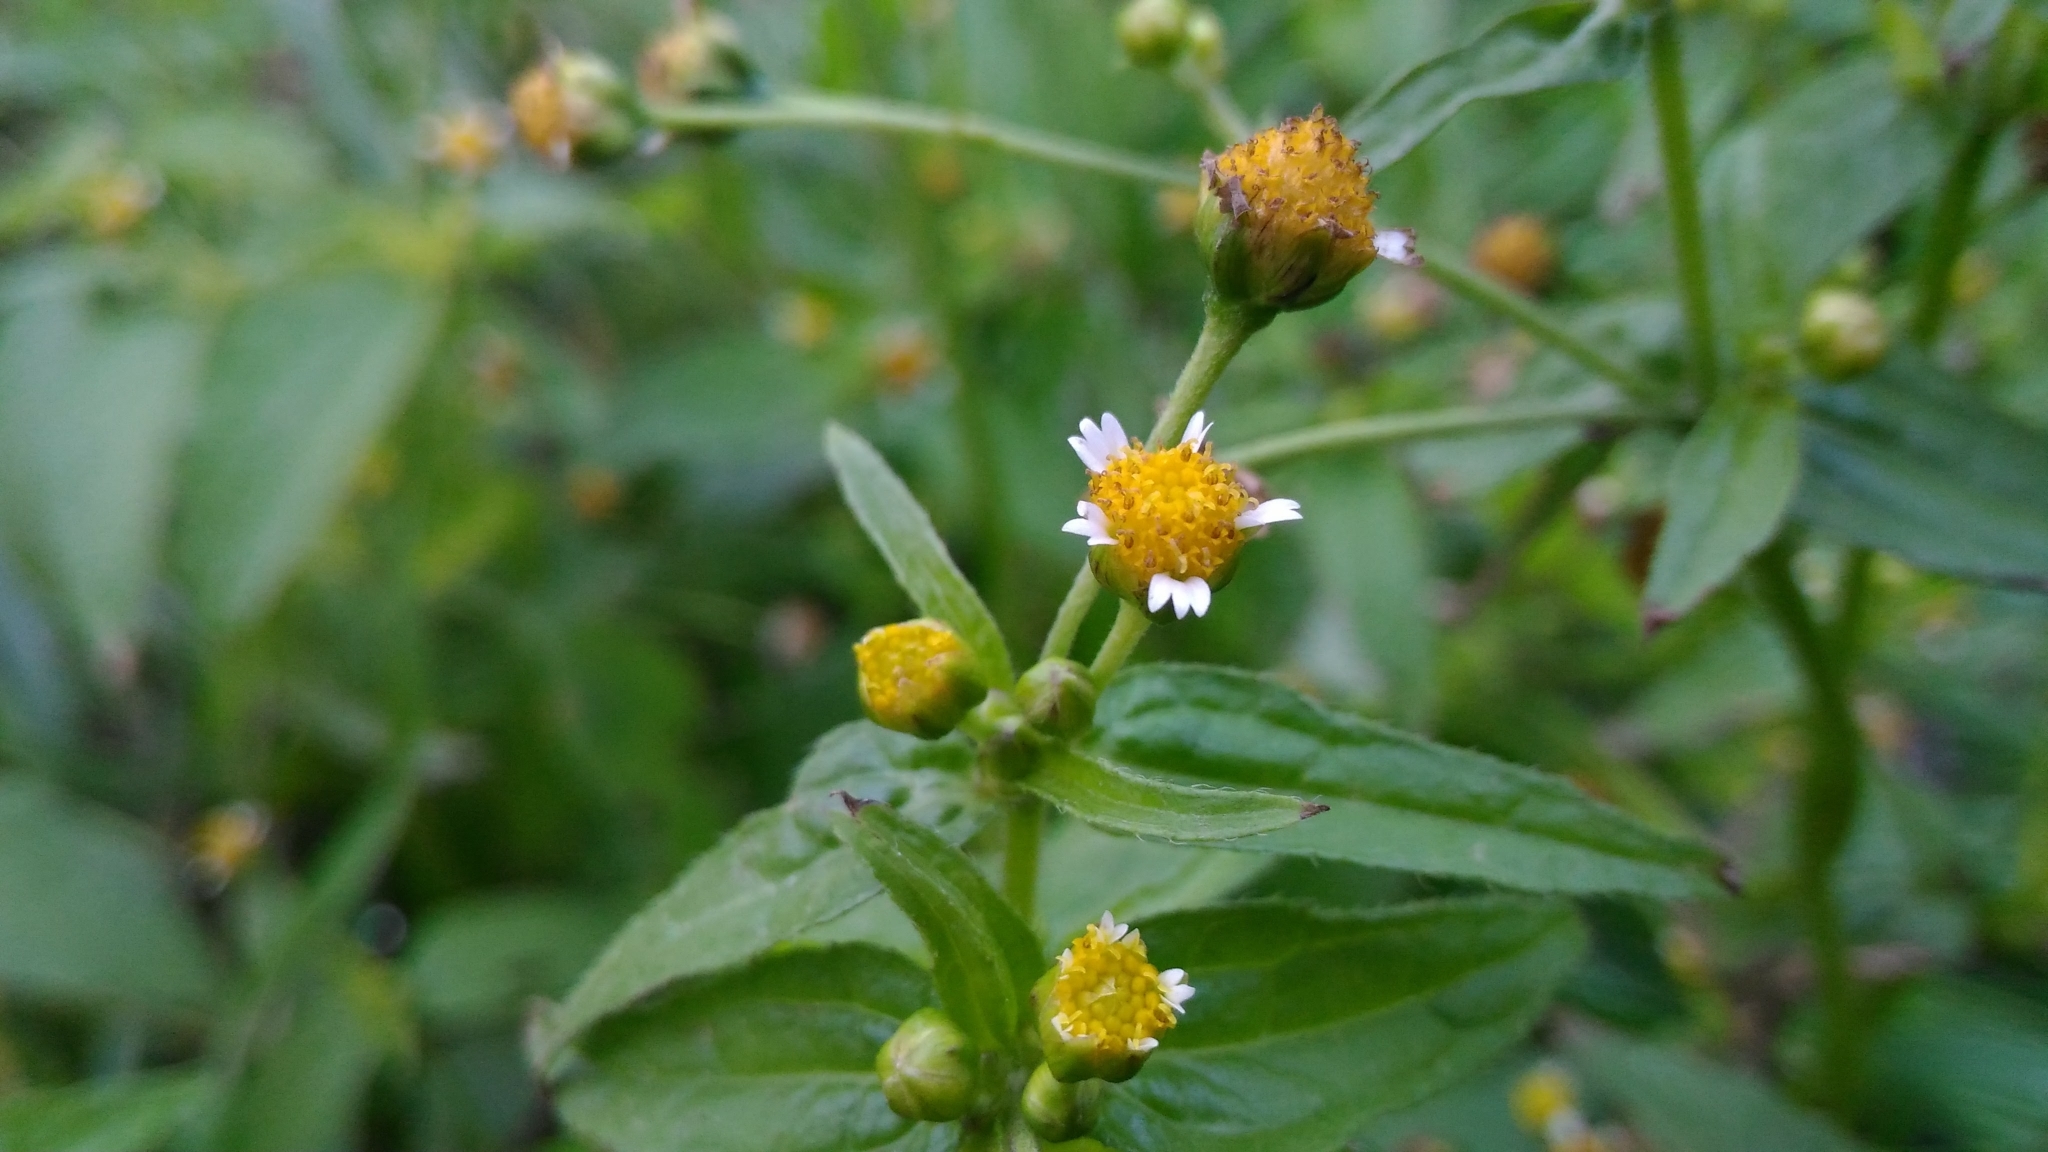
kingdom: Plantae
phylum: Tracheophyta
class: Magnoliopsida
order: Asterales
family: Asteraceae
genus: Galinsoga
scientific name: Galinsoga parviflora
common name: Gallant soldier
